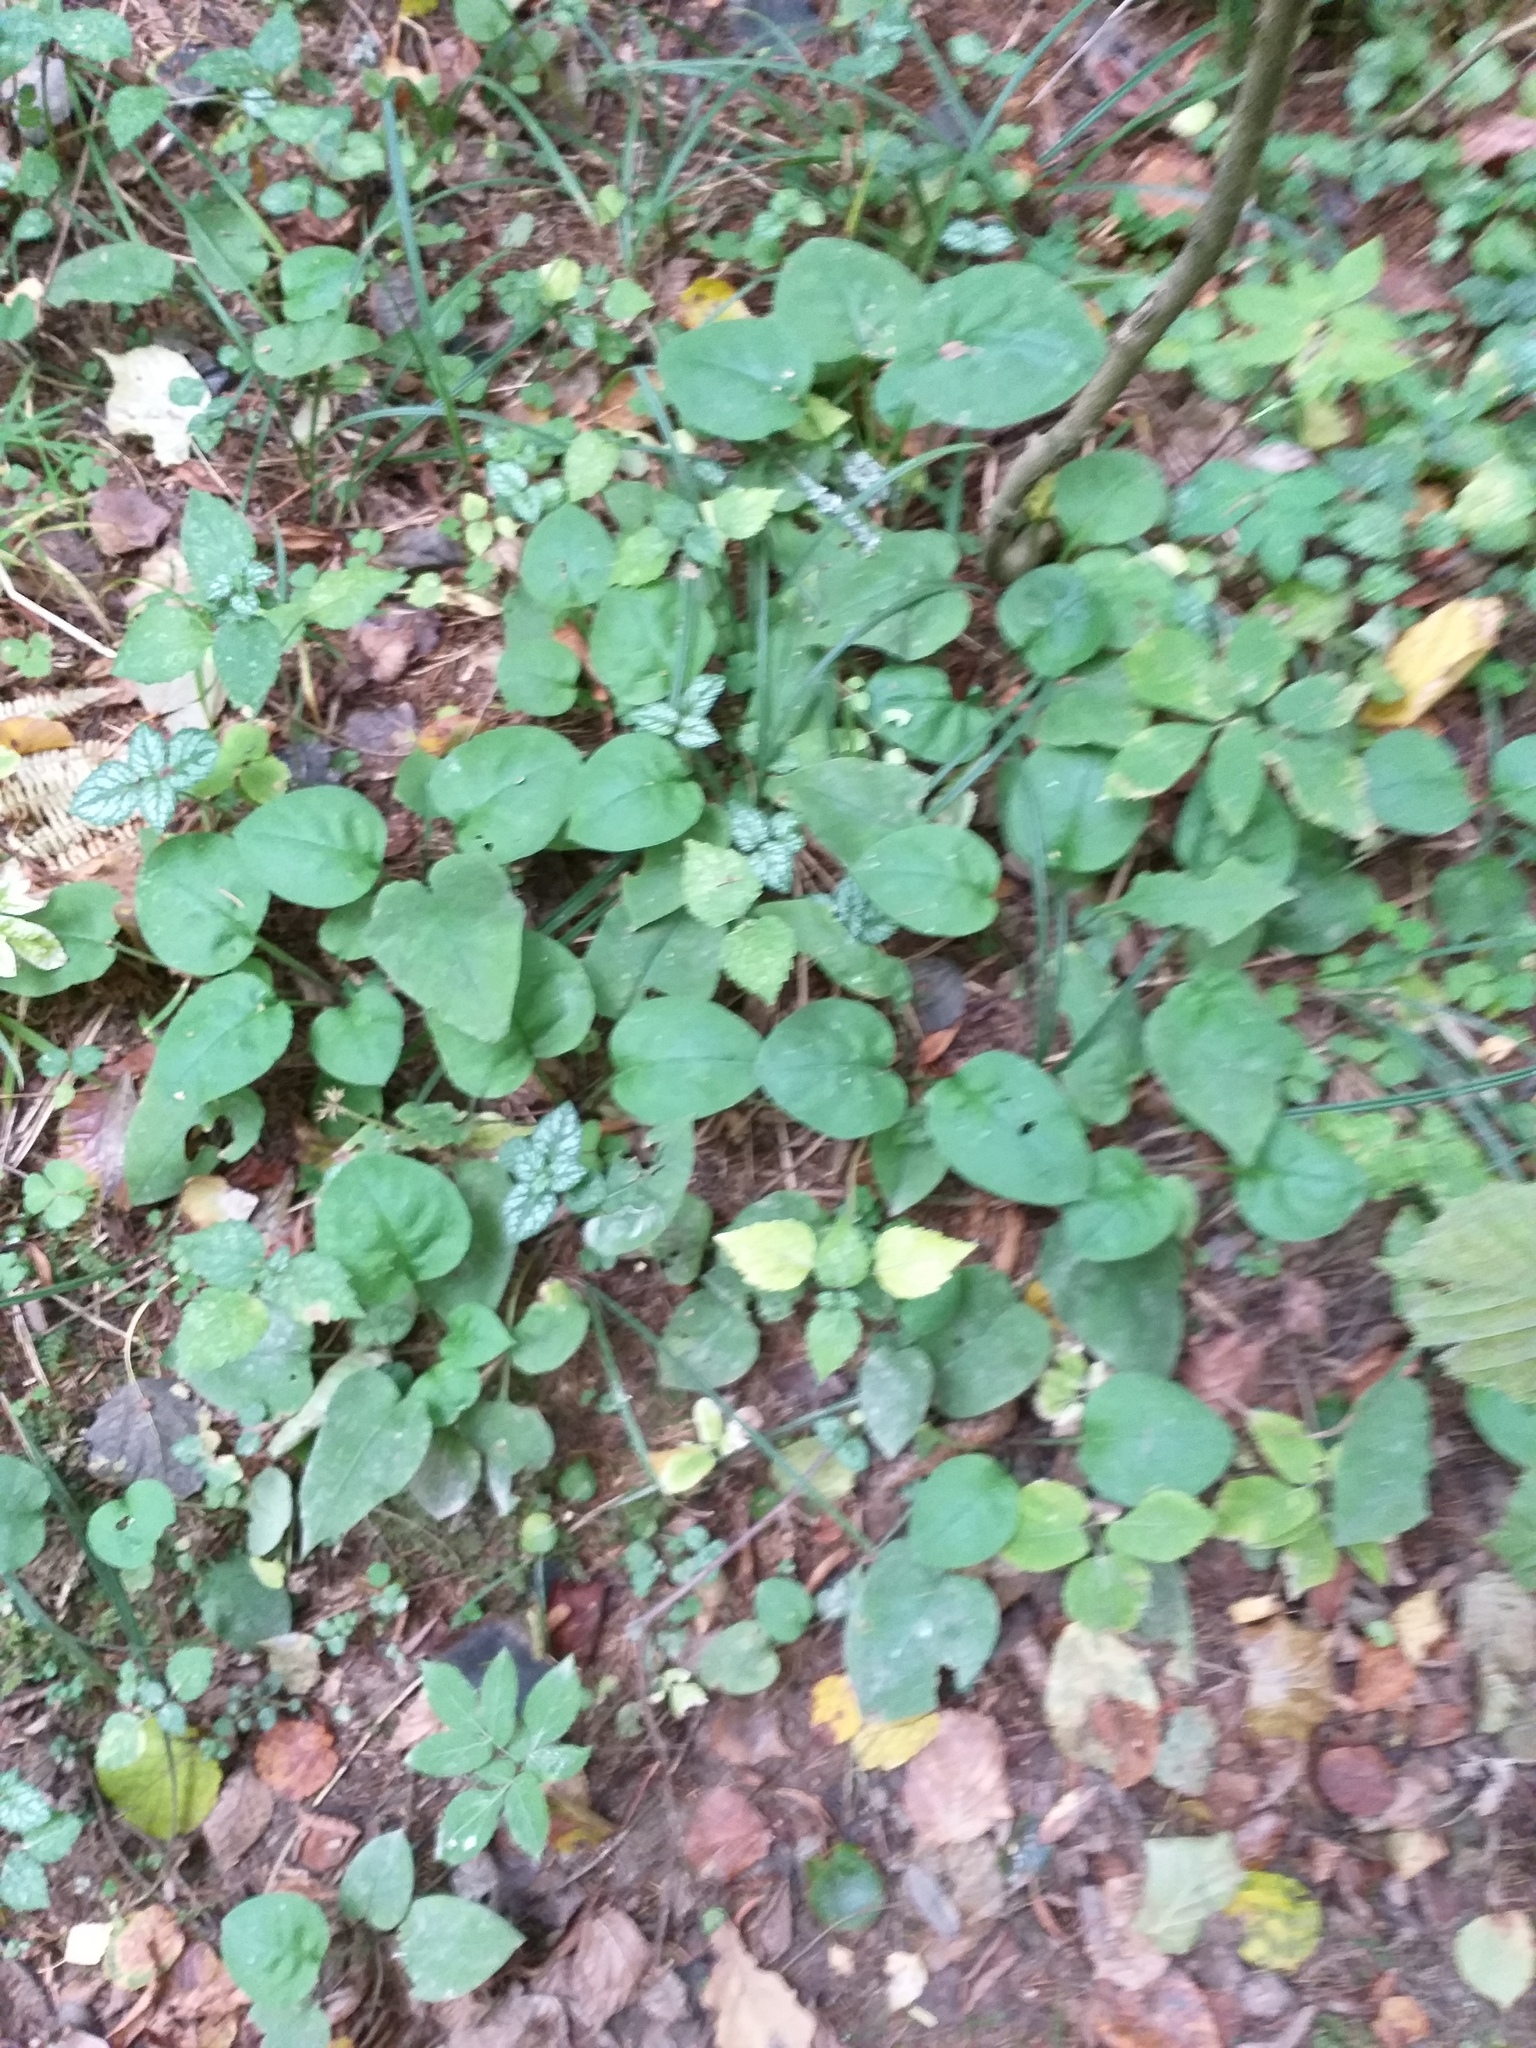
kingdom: Plantae
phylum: Tracheophyta
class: Magnoliopsida
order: Boraginales
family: Boraginaceae
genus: Pulmonaria
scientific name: Pulmonaria obscura
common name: Suffolk lungwort
